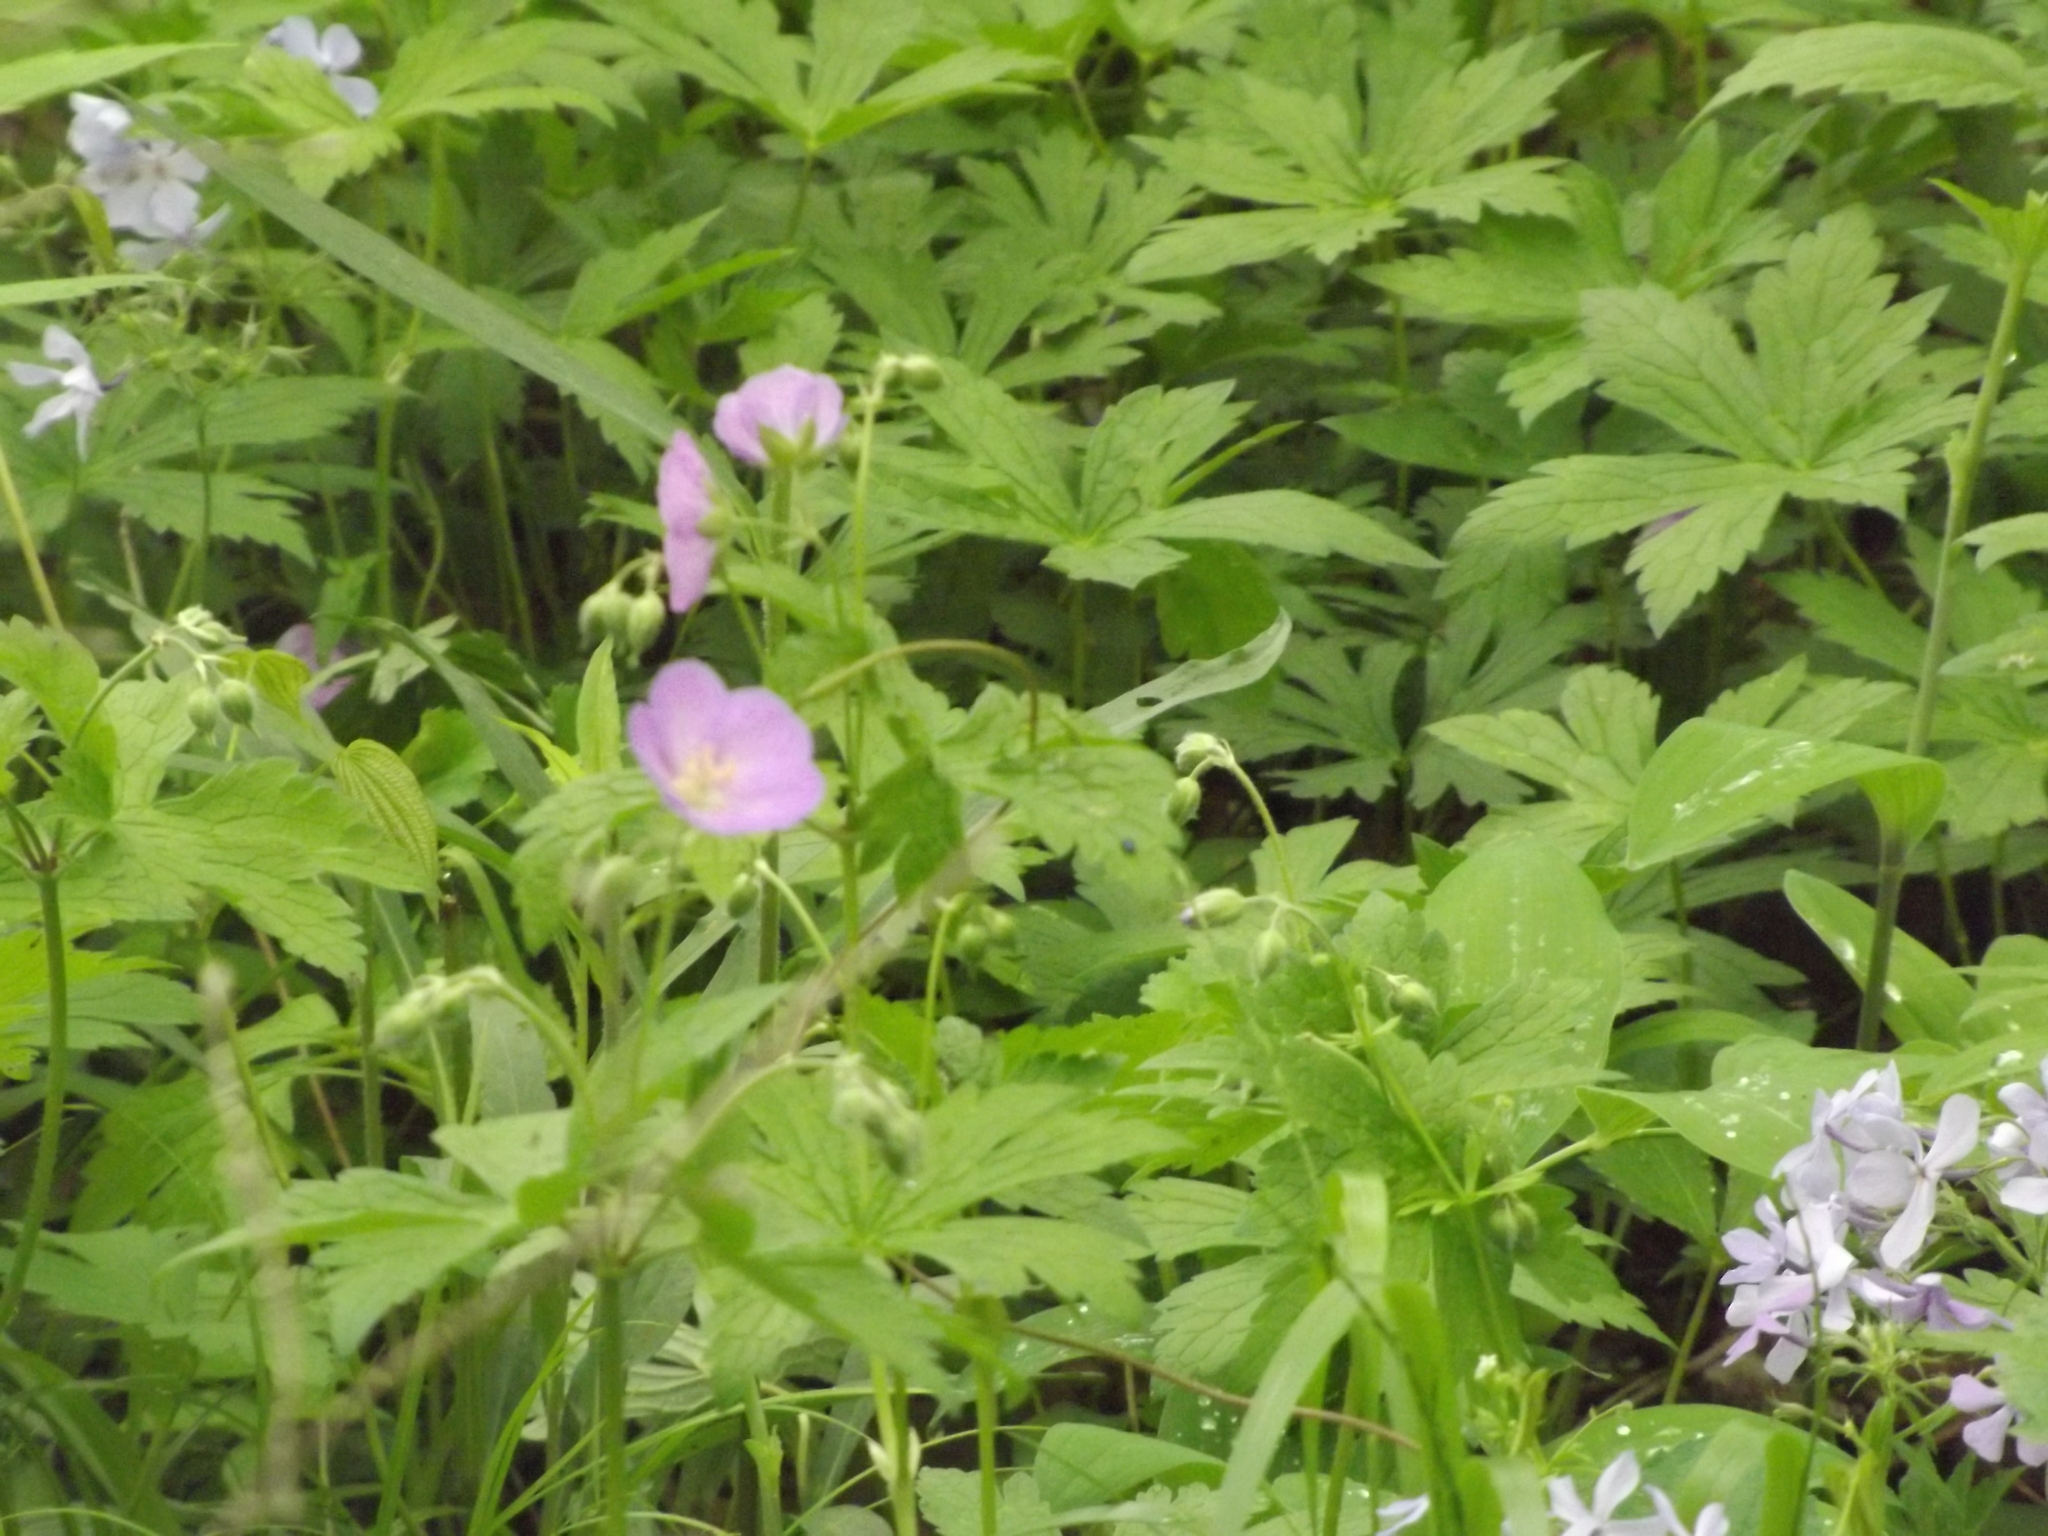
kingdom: Plantae
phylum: Tracheophyta
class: Magnoliopsida
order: Geraniales
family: Geraniaceae
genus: Geranium
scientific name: Geranium maculatum
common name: Spotted geranium
